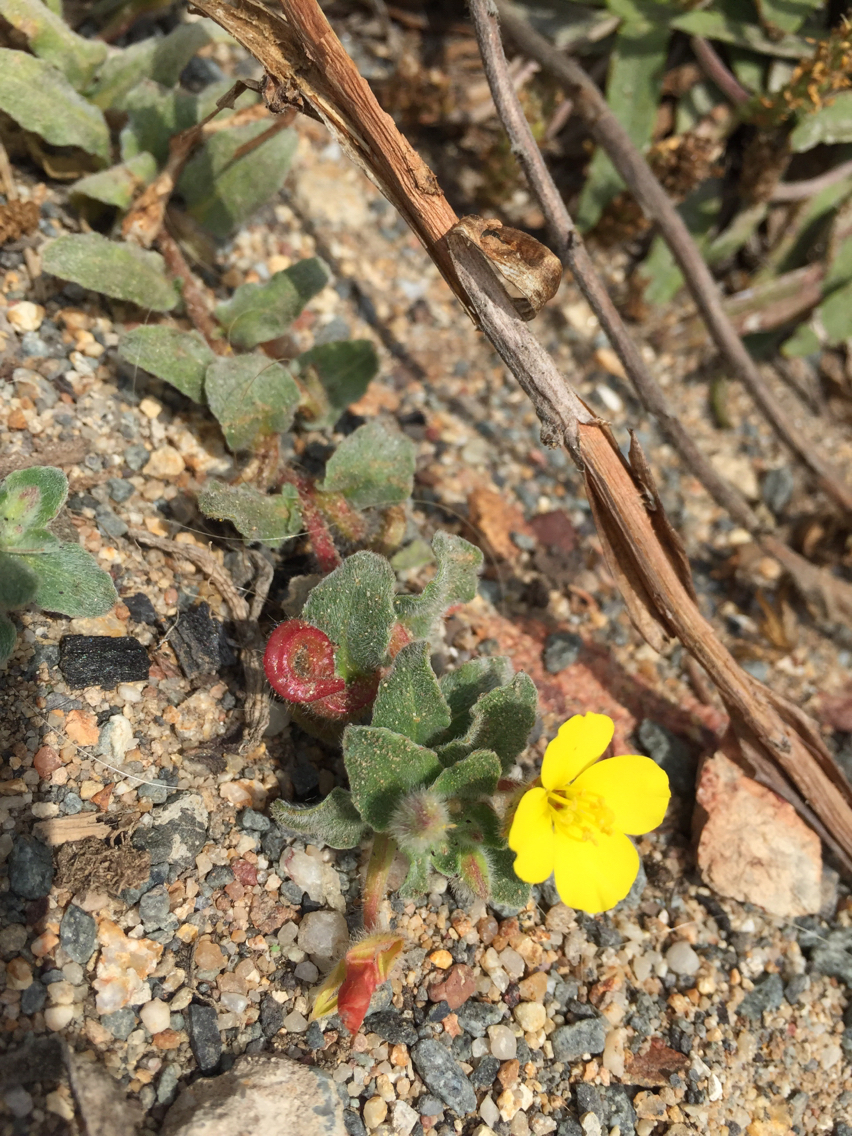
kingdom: Plantae
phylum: Tracheophyta
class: Magnoliopsida
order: Myrtales
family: Onagraceae
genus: Camissoniopsis
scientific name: Camissoniopsis cheiranthifolia
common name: Beach suncup
